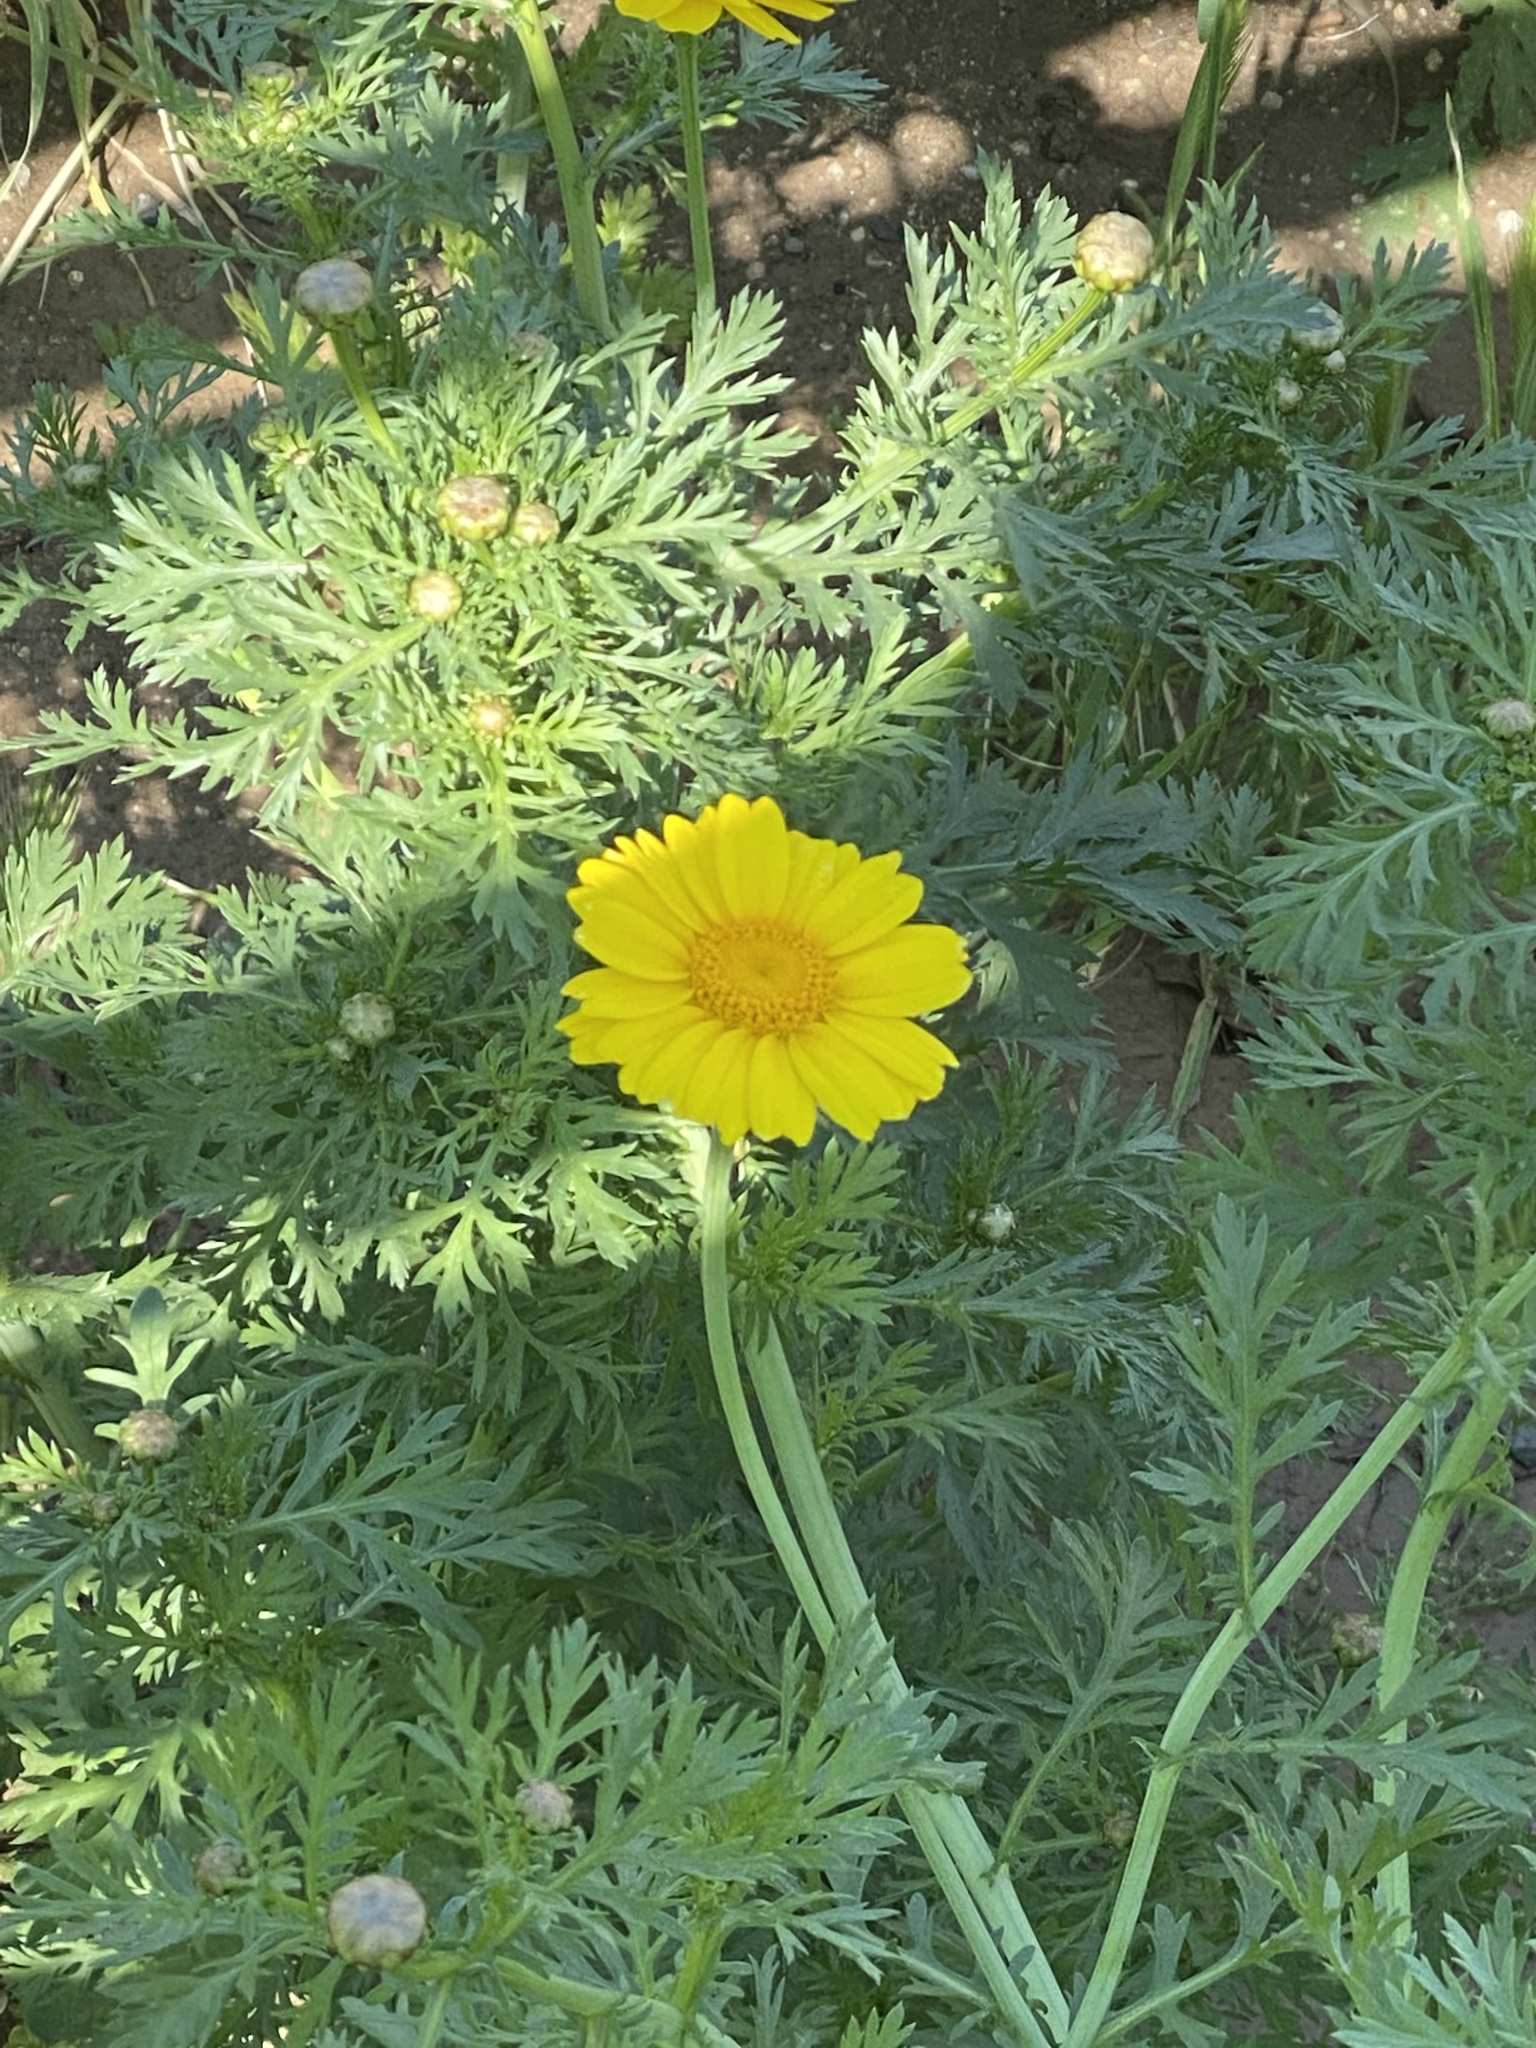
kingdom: Plantae
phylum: Tracheophyta
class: Magnoliopsida
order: Asterales
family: Asteraceae
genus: Glebionis
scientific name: Glebionis coronaria
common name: Crowndaisy
